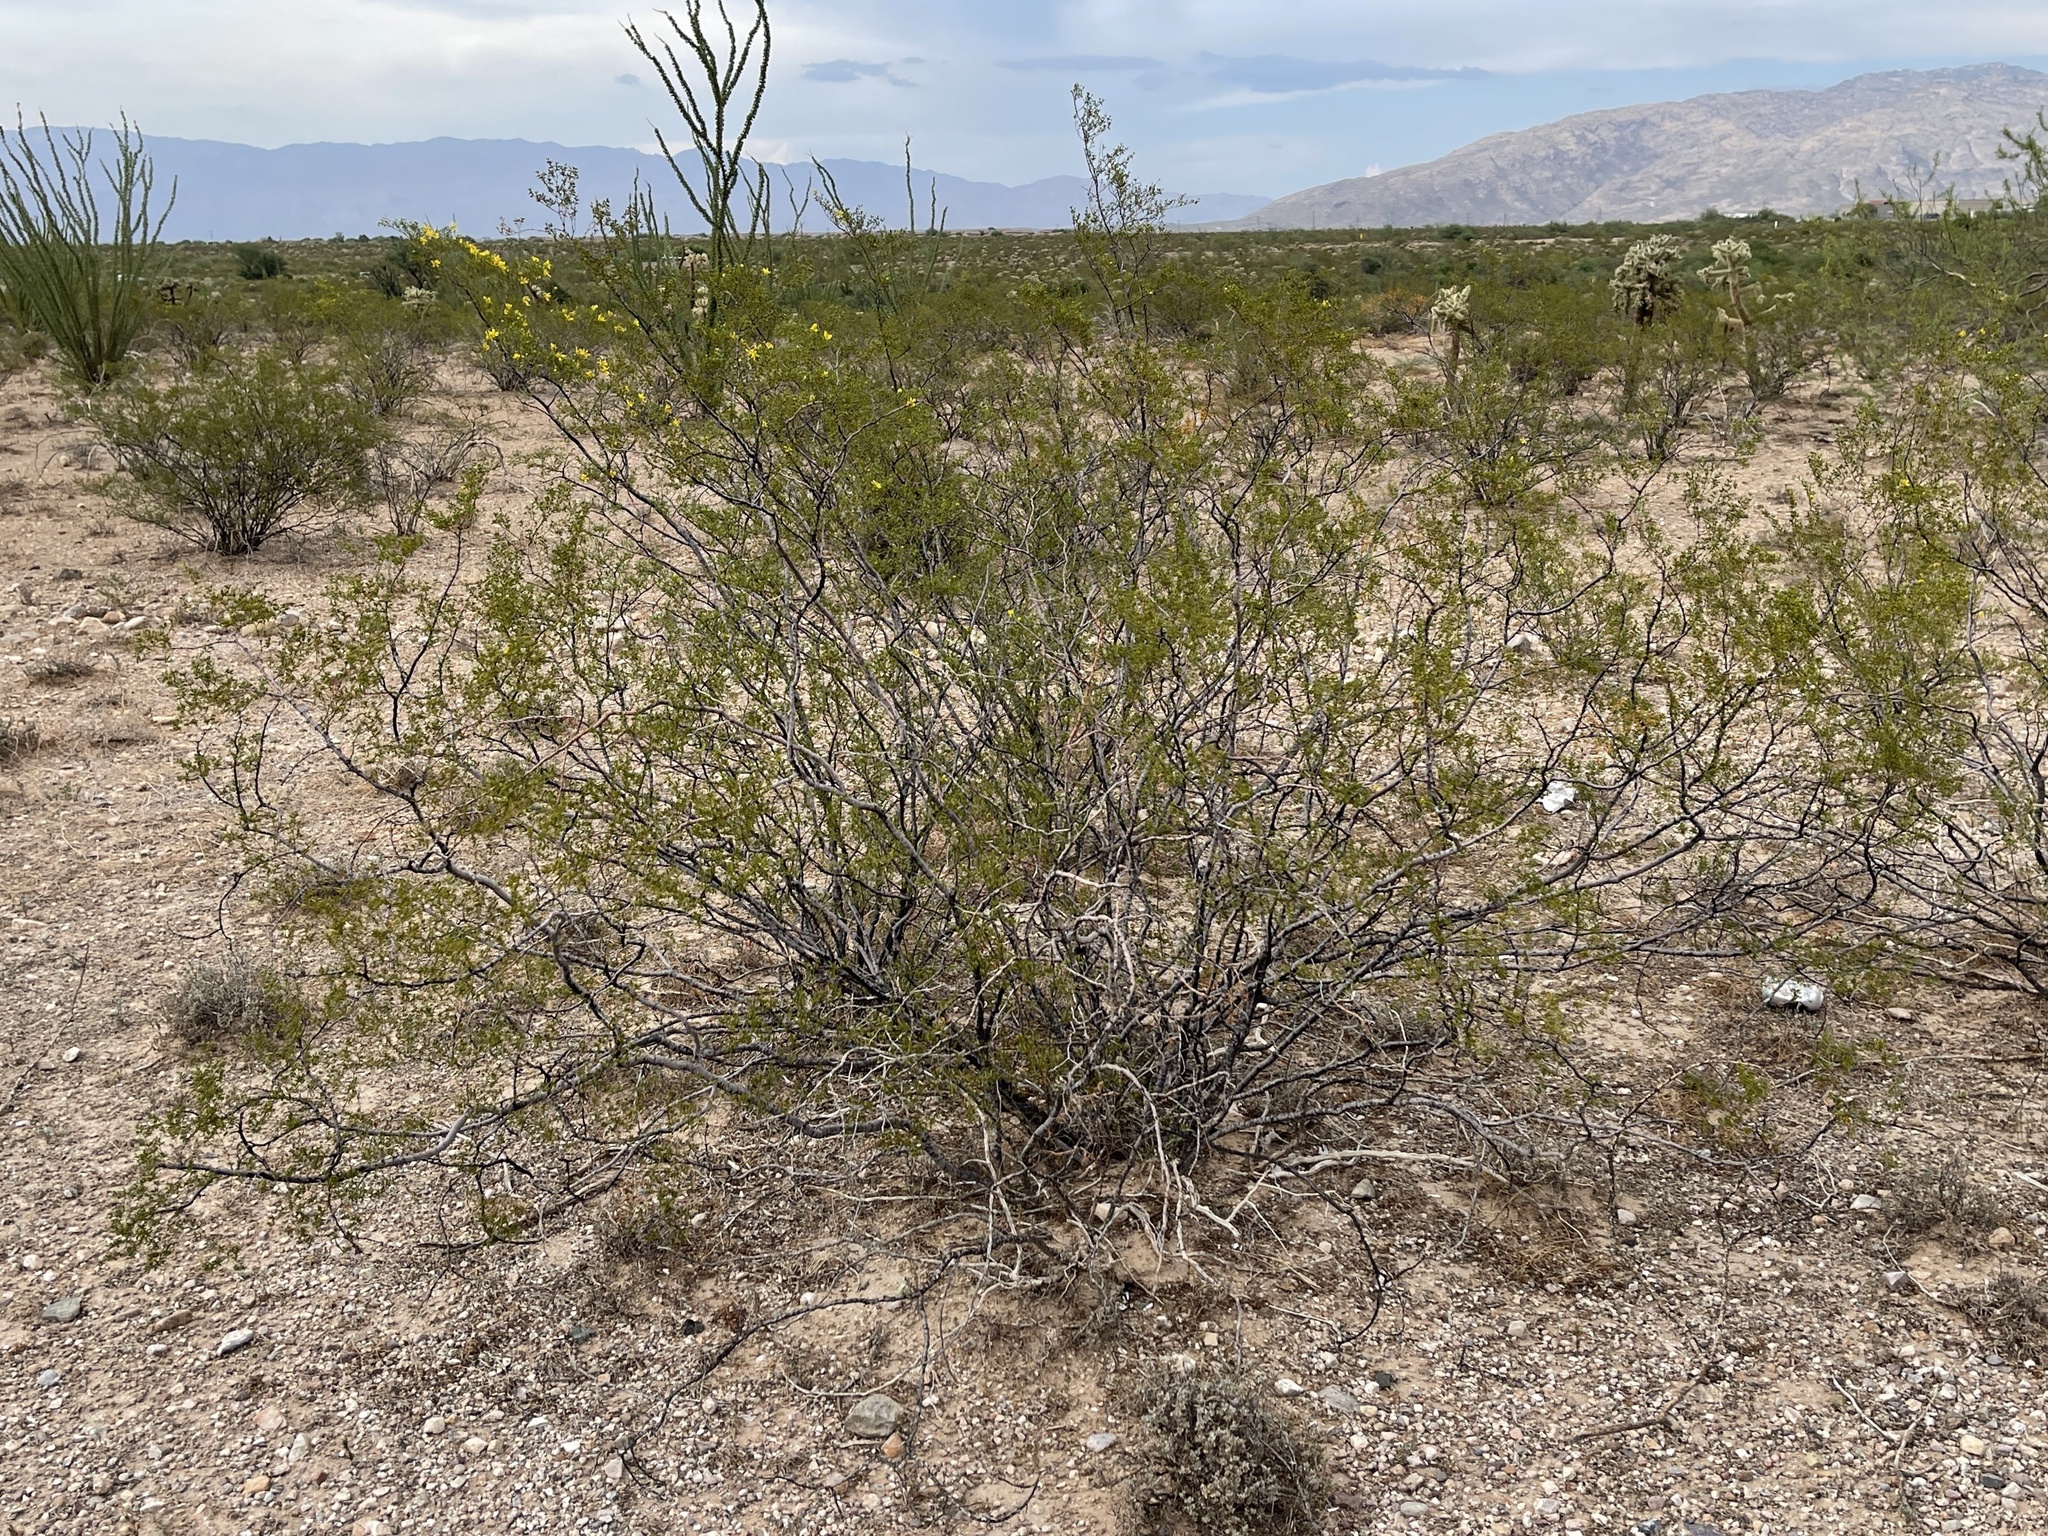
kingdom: Plantae
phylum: Tracheophyta
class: Magnoliopsida
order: Zygophyllales
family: Zygophyllaceae
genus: Larrea
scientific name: Larrea tridentata
